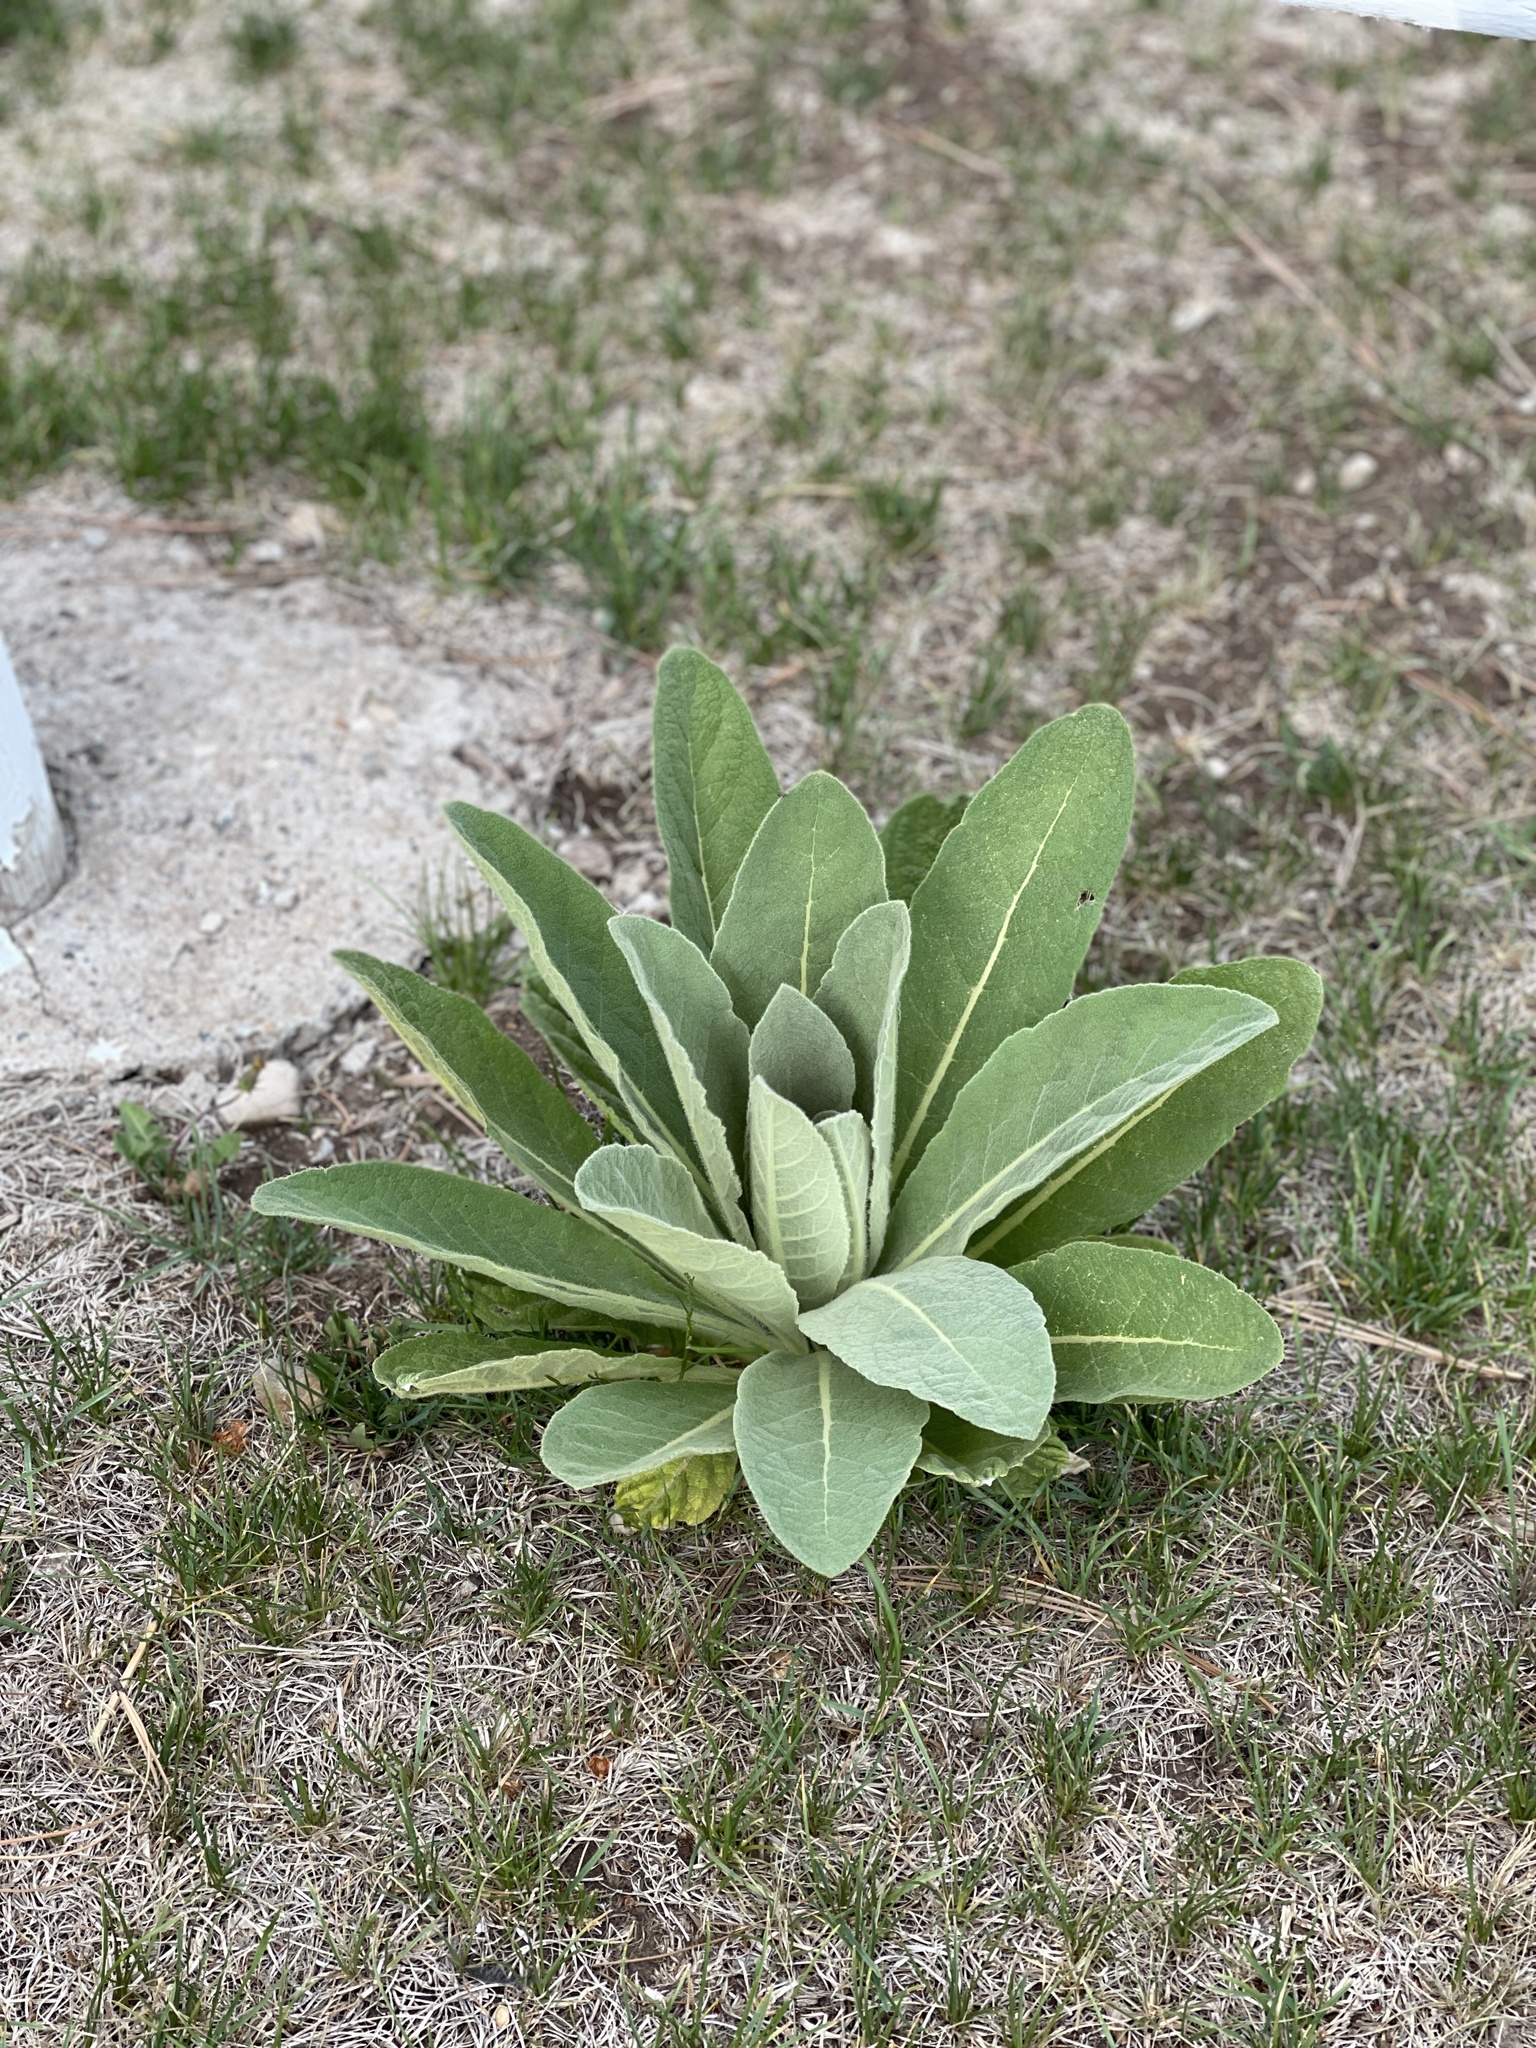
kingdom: Plantae
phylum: Tracheophyta
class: Magnoliopsida
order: Lamiales
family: Scrophulariaceae
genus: Verbascum
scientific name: Verbascum thapsus
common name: Common mullein
